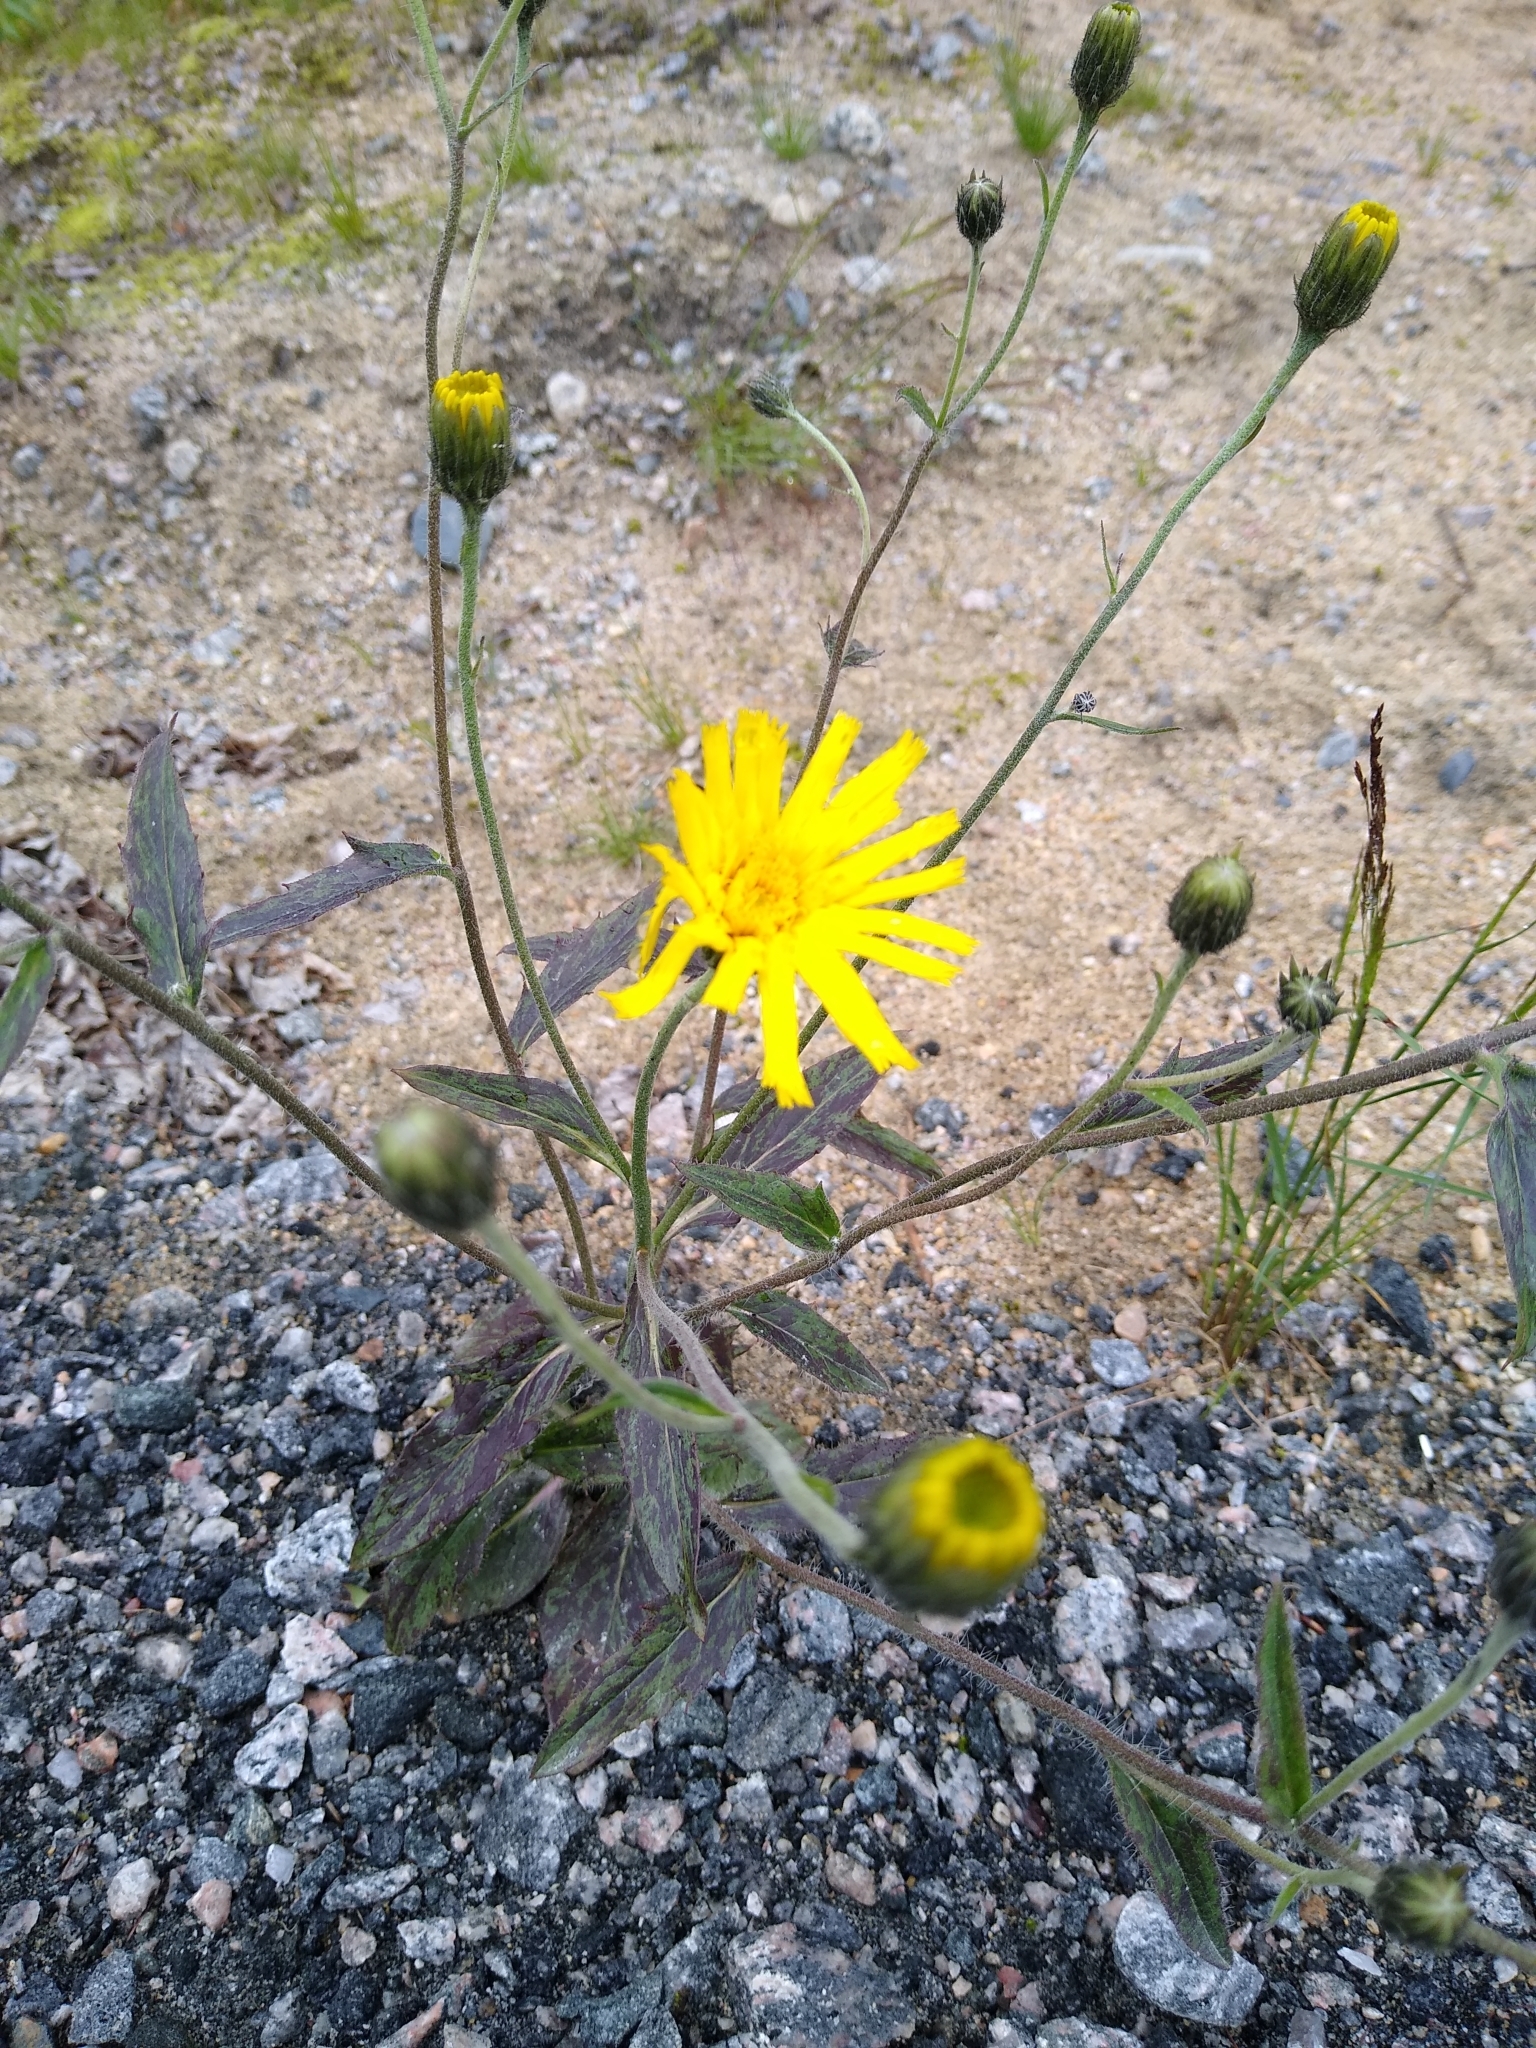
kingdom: Plantae
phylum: Tracheophyta
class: Magnoliopsida
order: Asterales
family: Asteraceae
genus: Hieracium
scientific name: Hieracium lachenalii
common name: Common hawkweed
